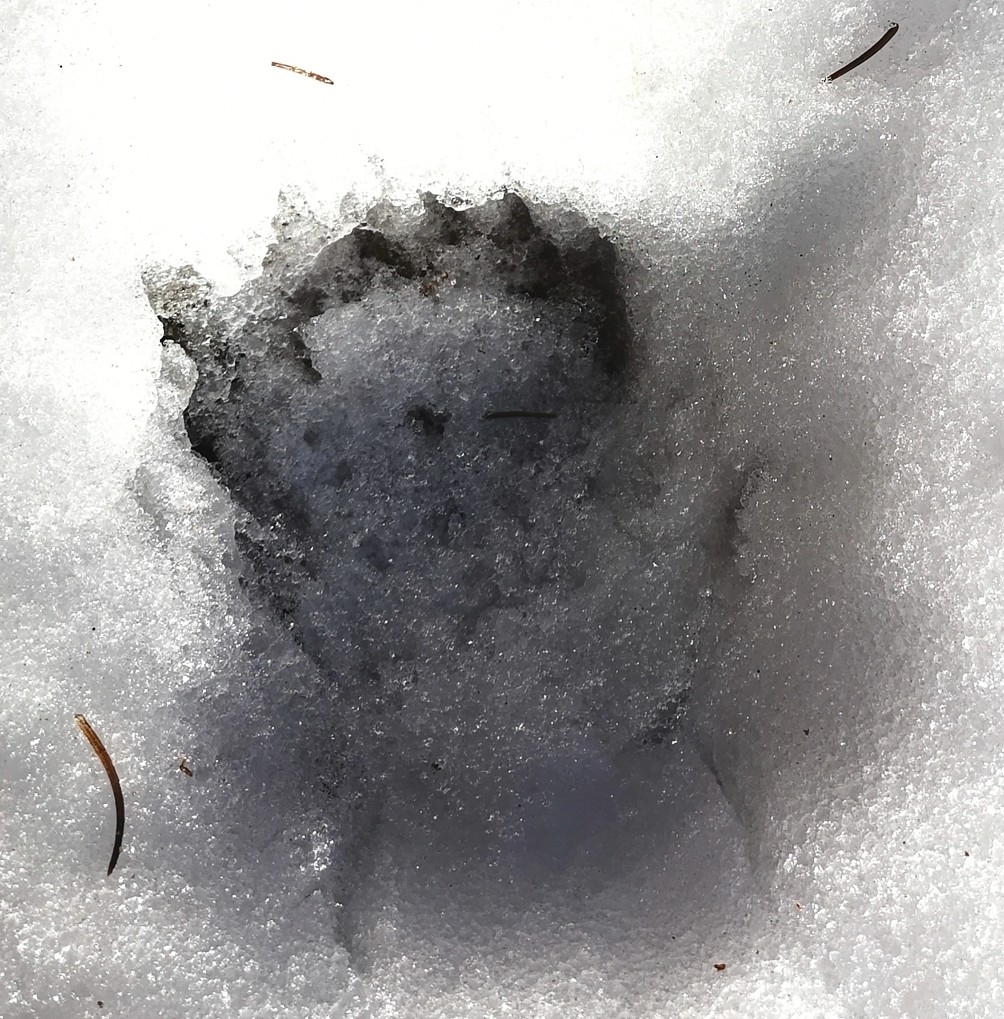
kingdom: Animalia
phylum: Chordata
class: Mammalia
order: Carnivora
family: Mustelidae
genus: Meles
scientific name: Meles meles
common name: Eurasian badger
